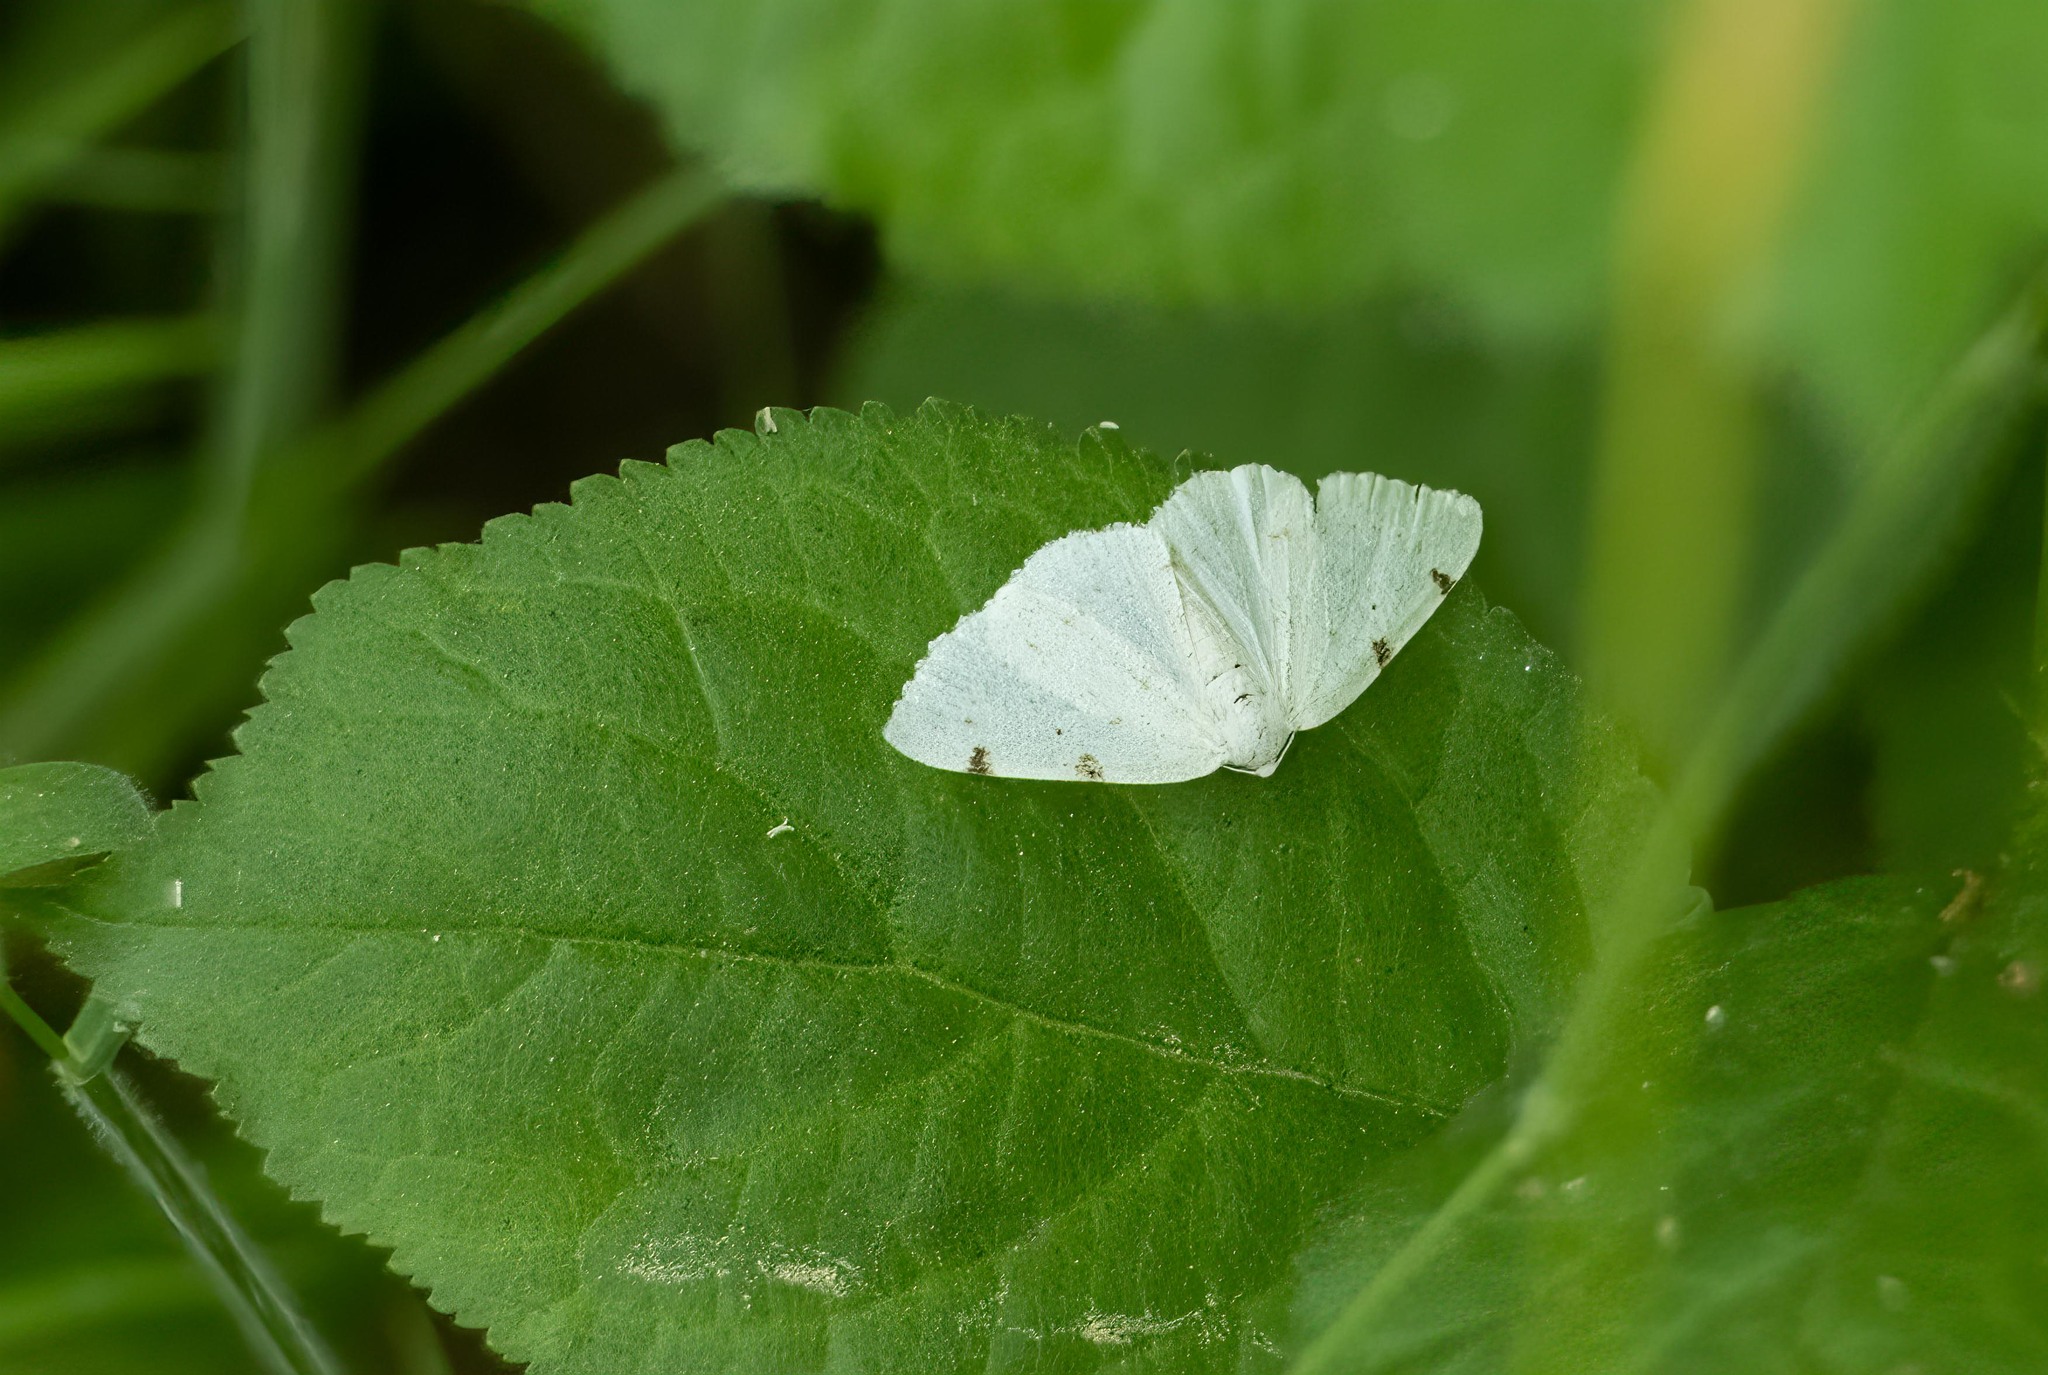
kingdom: Animalia
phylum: Arthropoda
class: Insecta
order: Lepidoptera
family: Geometridae
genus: Lomographa
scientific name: Lomographa bimaculata
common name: White-pinion spotted
